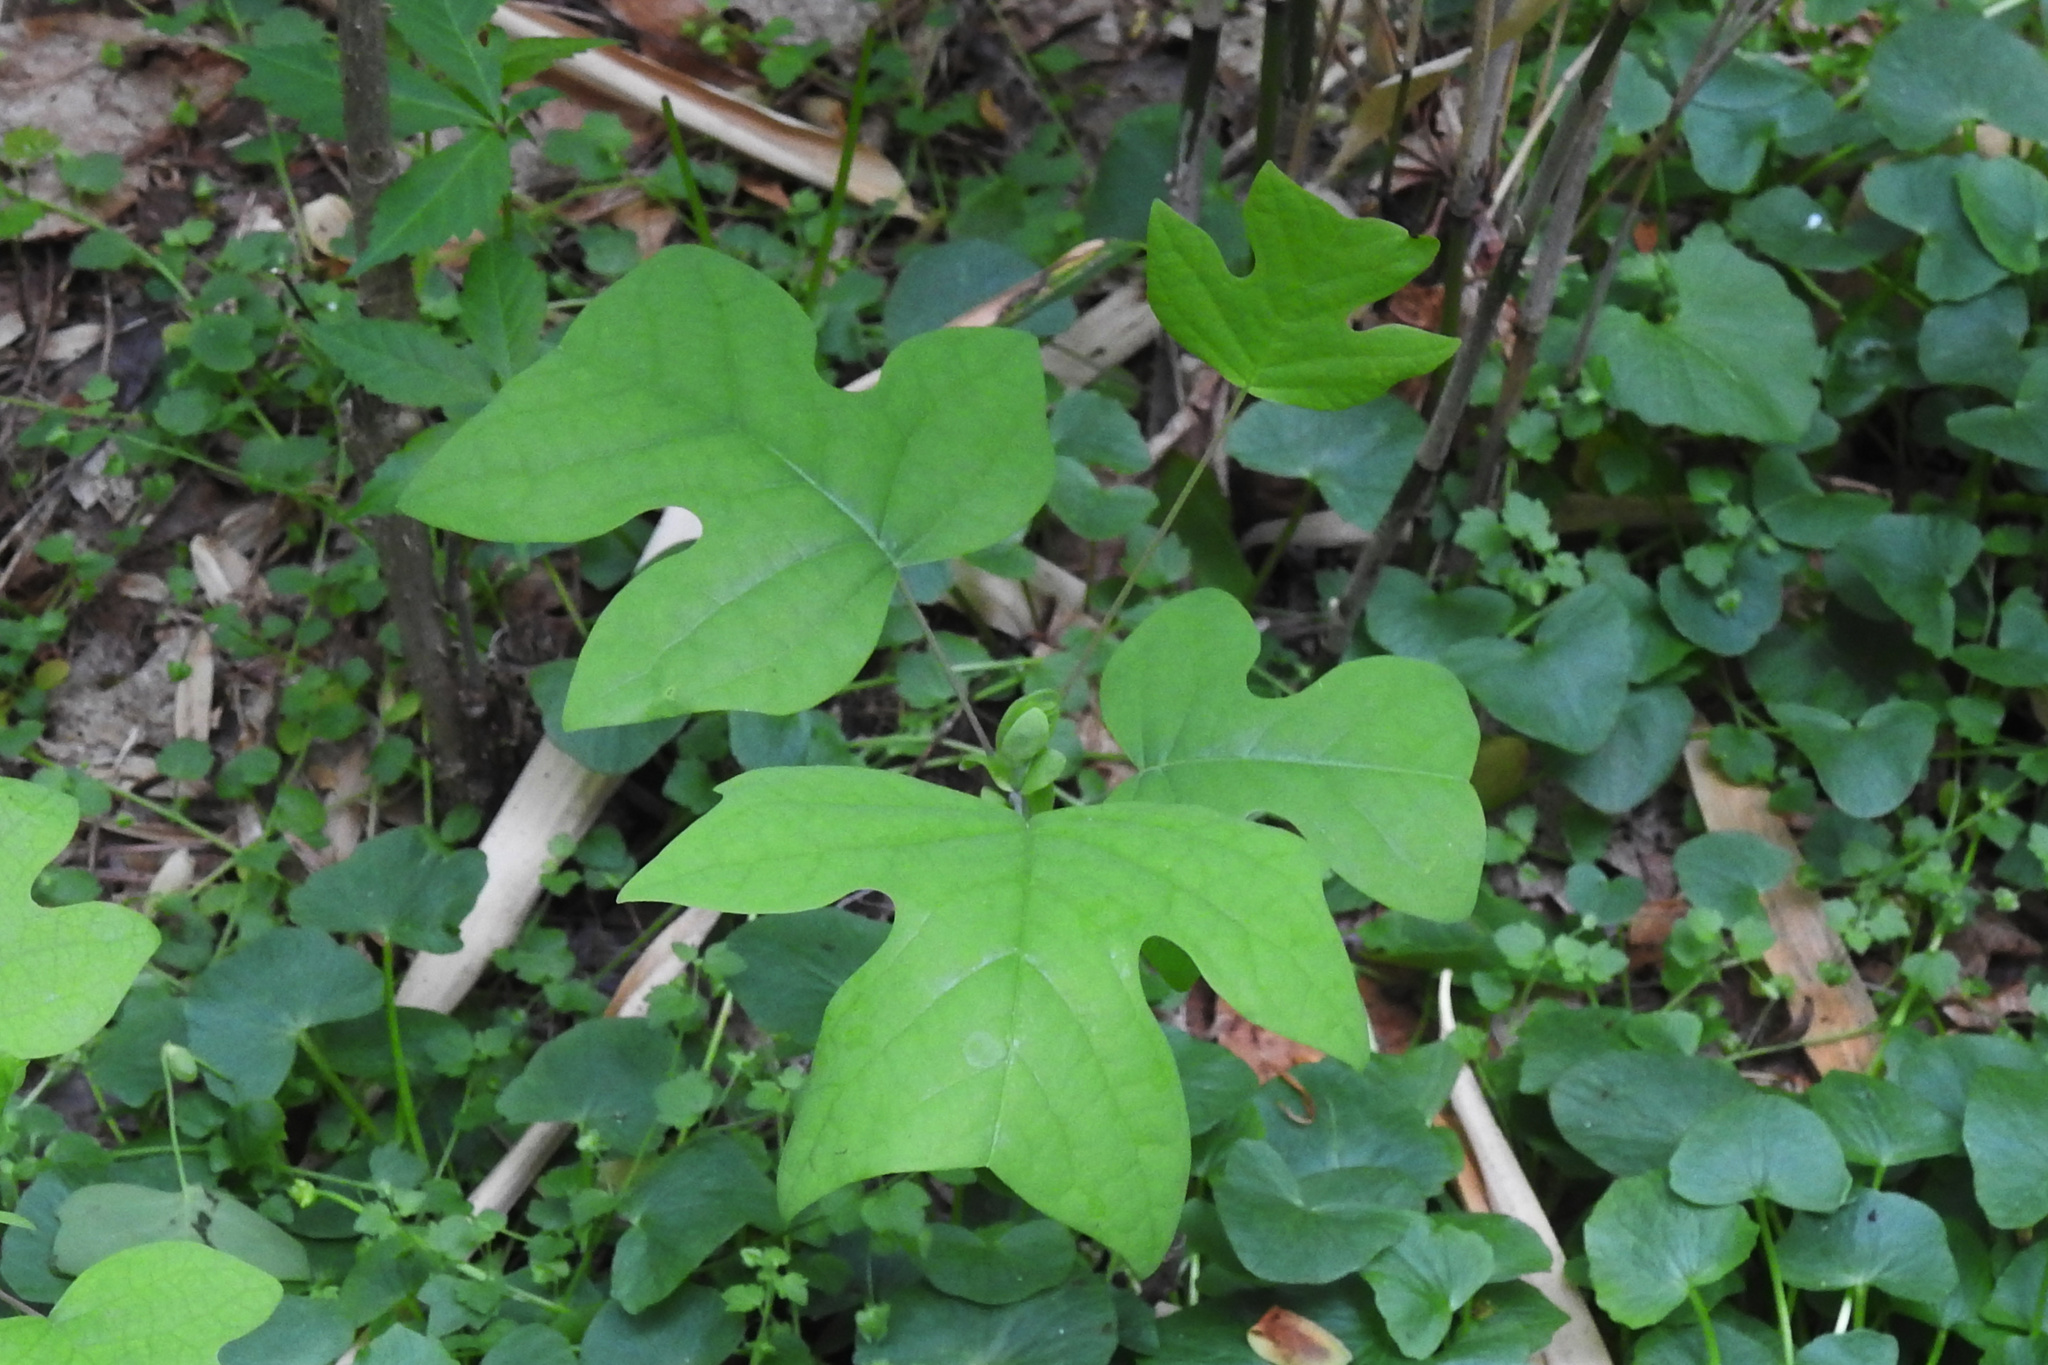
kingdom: Plantae
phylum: Tracheophyta
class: Magnoliopsida
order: Magnoliales
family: Magnoliaceae
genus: Liriodendron
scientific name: Liriodendron tulipifera
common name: Tulip tree
